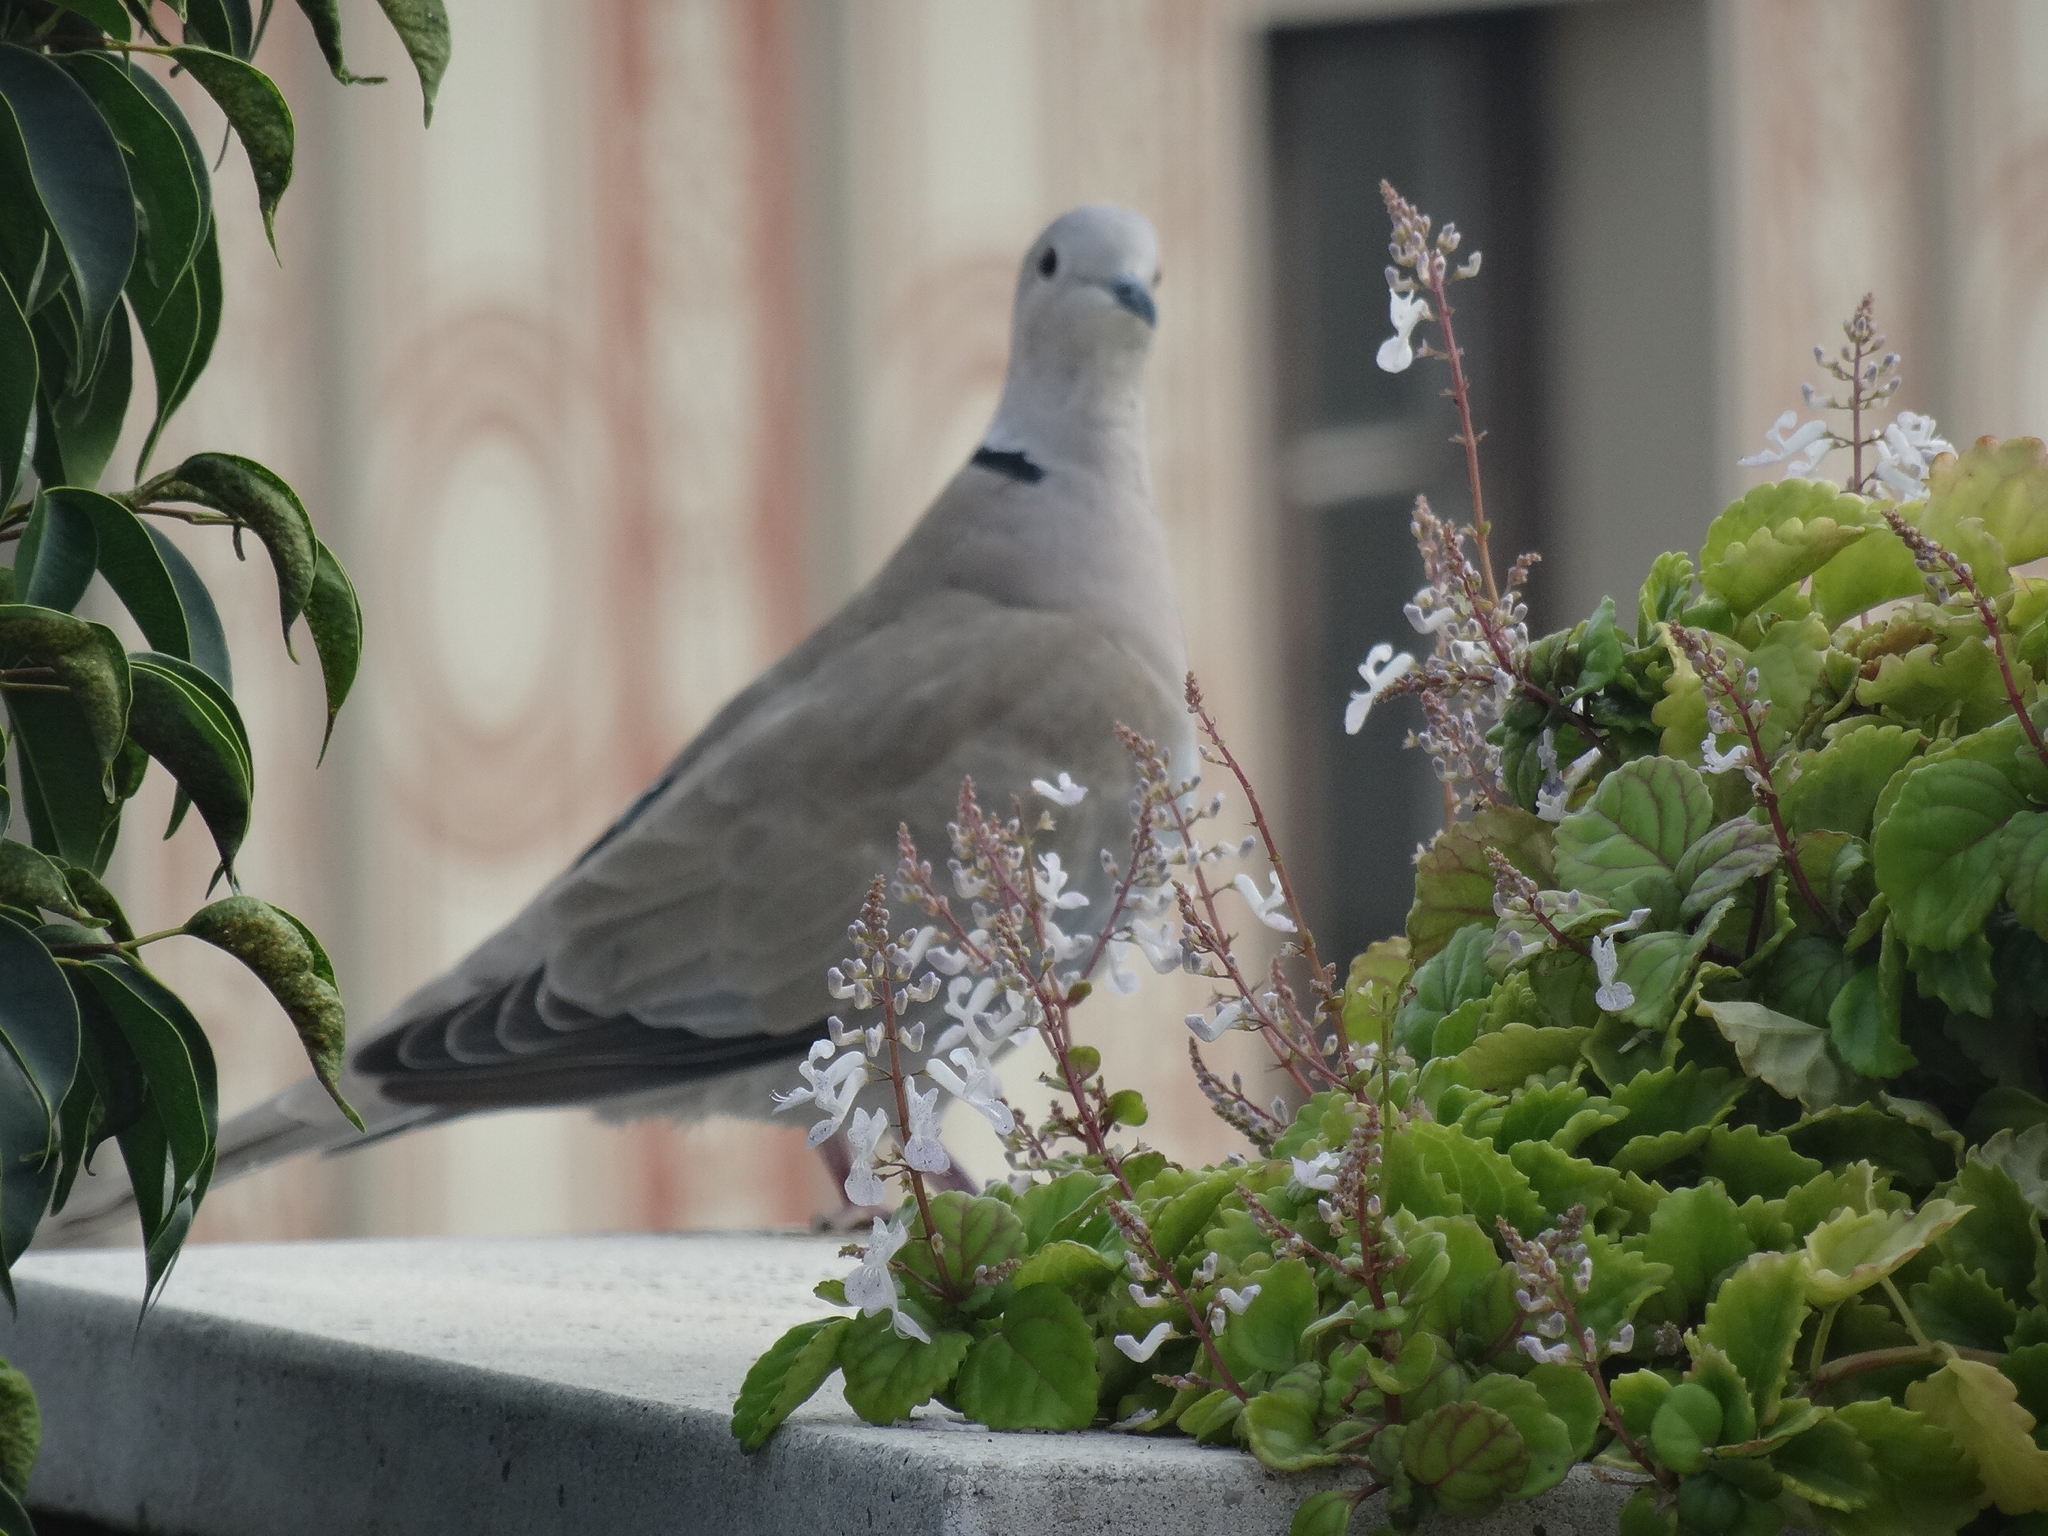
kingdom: Animalia
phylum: Chordata
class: Aves
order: Columbiformes
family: Columbidae
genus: Streptopelia
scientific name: Streptopelia decaocto
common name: Eurasian collared dove
